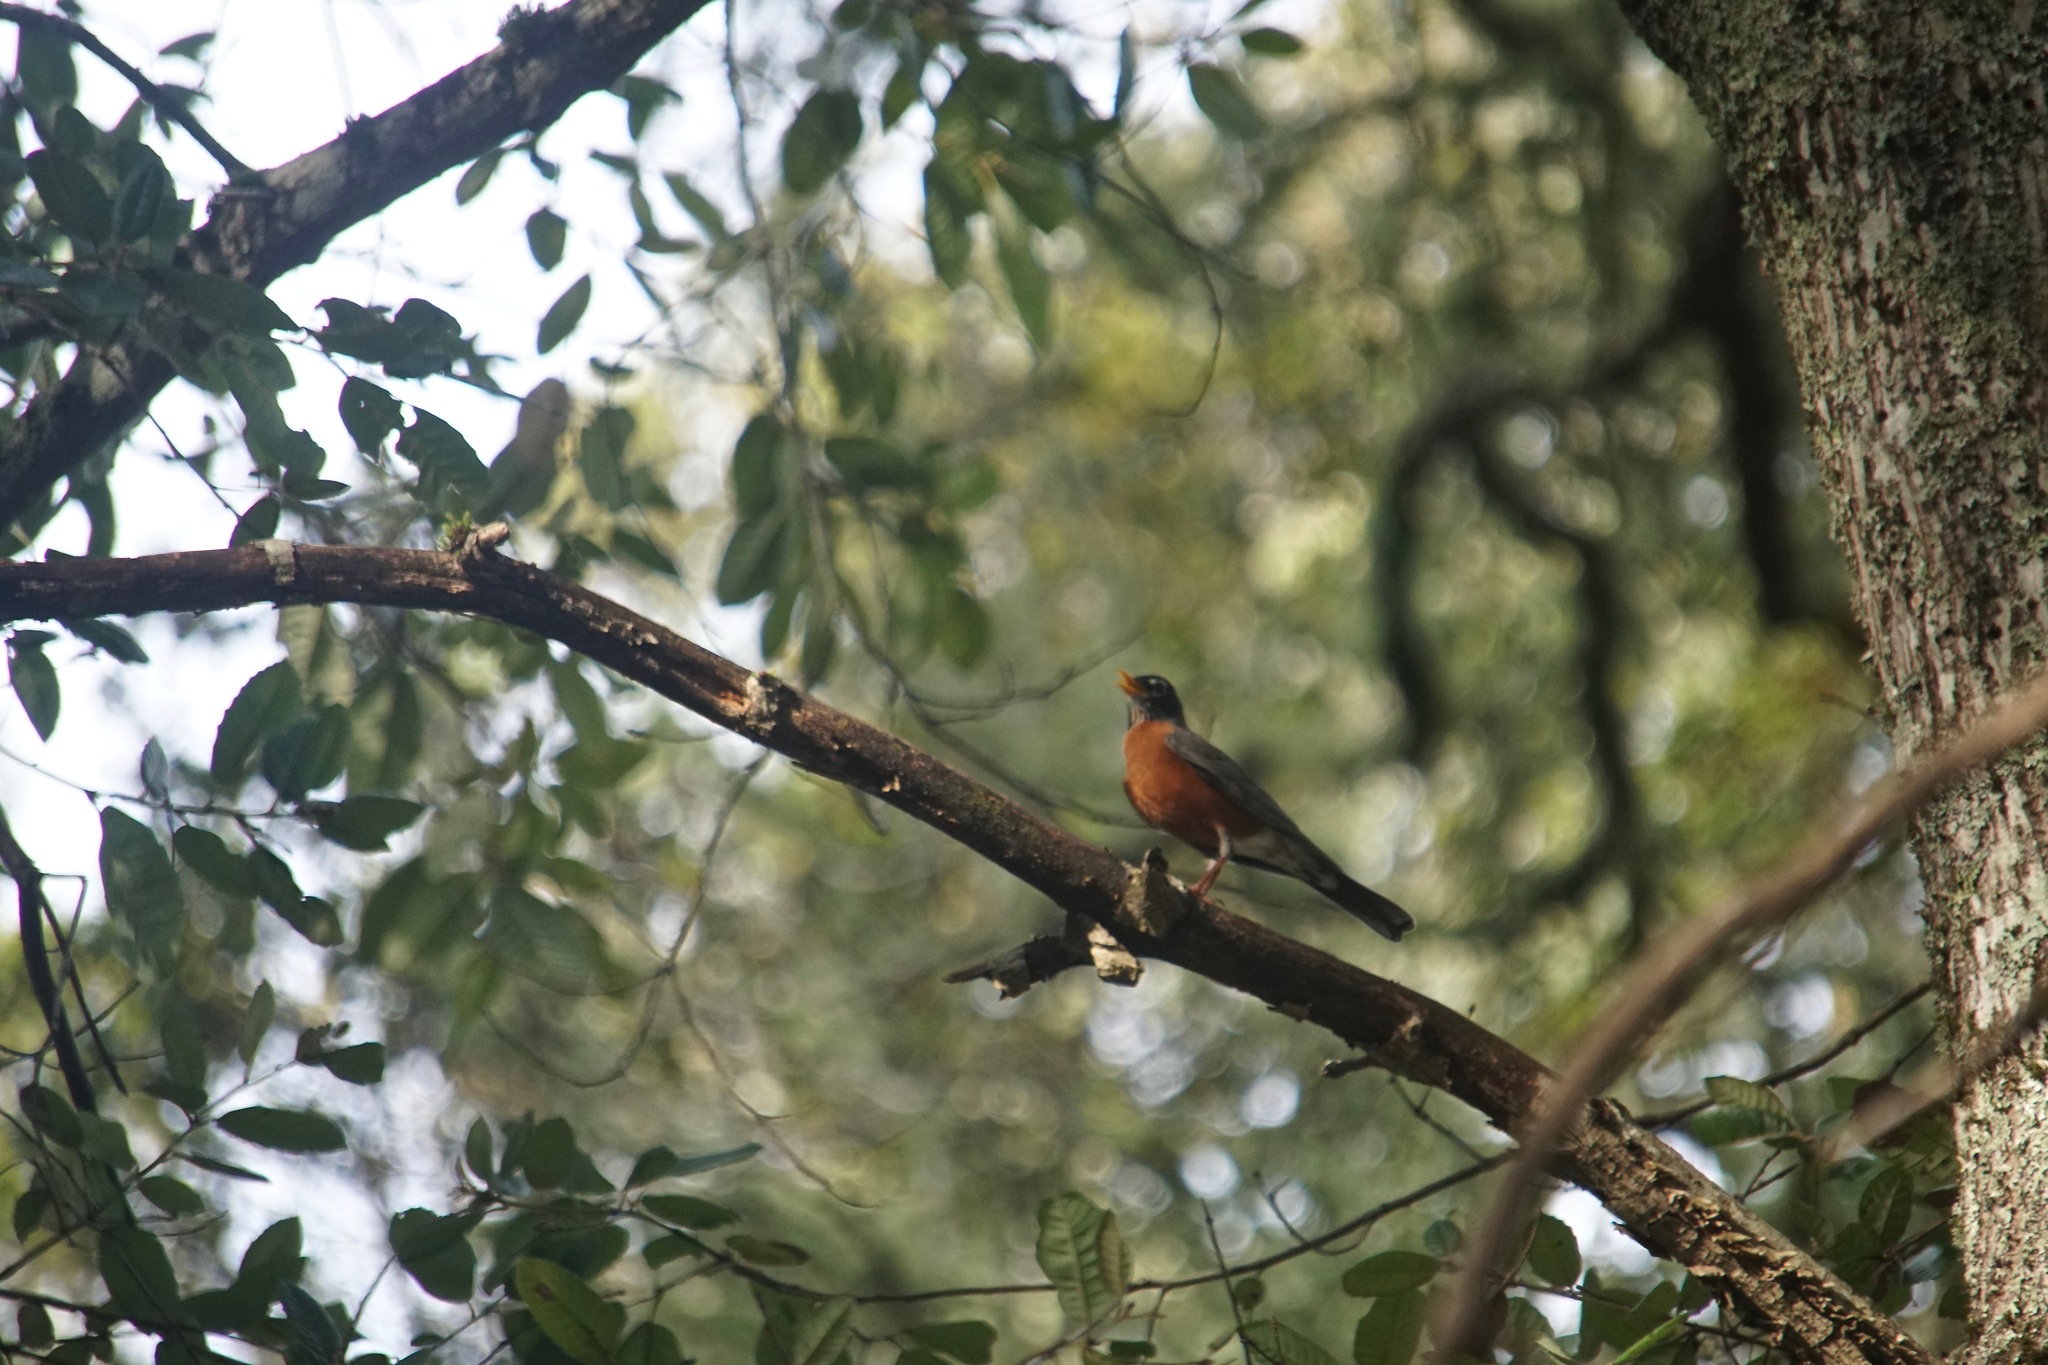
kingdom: Animalia
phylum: Chordata
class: Aves
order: Passeriformes
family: Turdidae
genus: Turdus
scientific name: Turdus migratorius
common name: American robin
